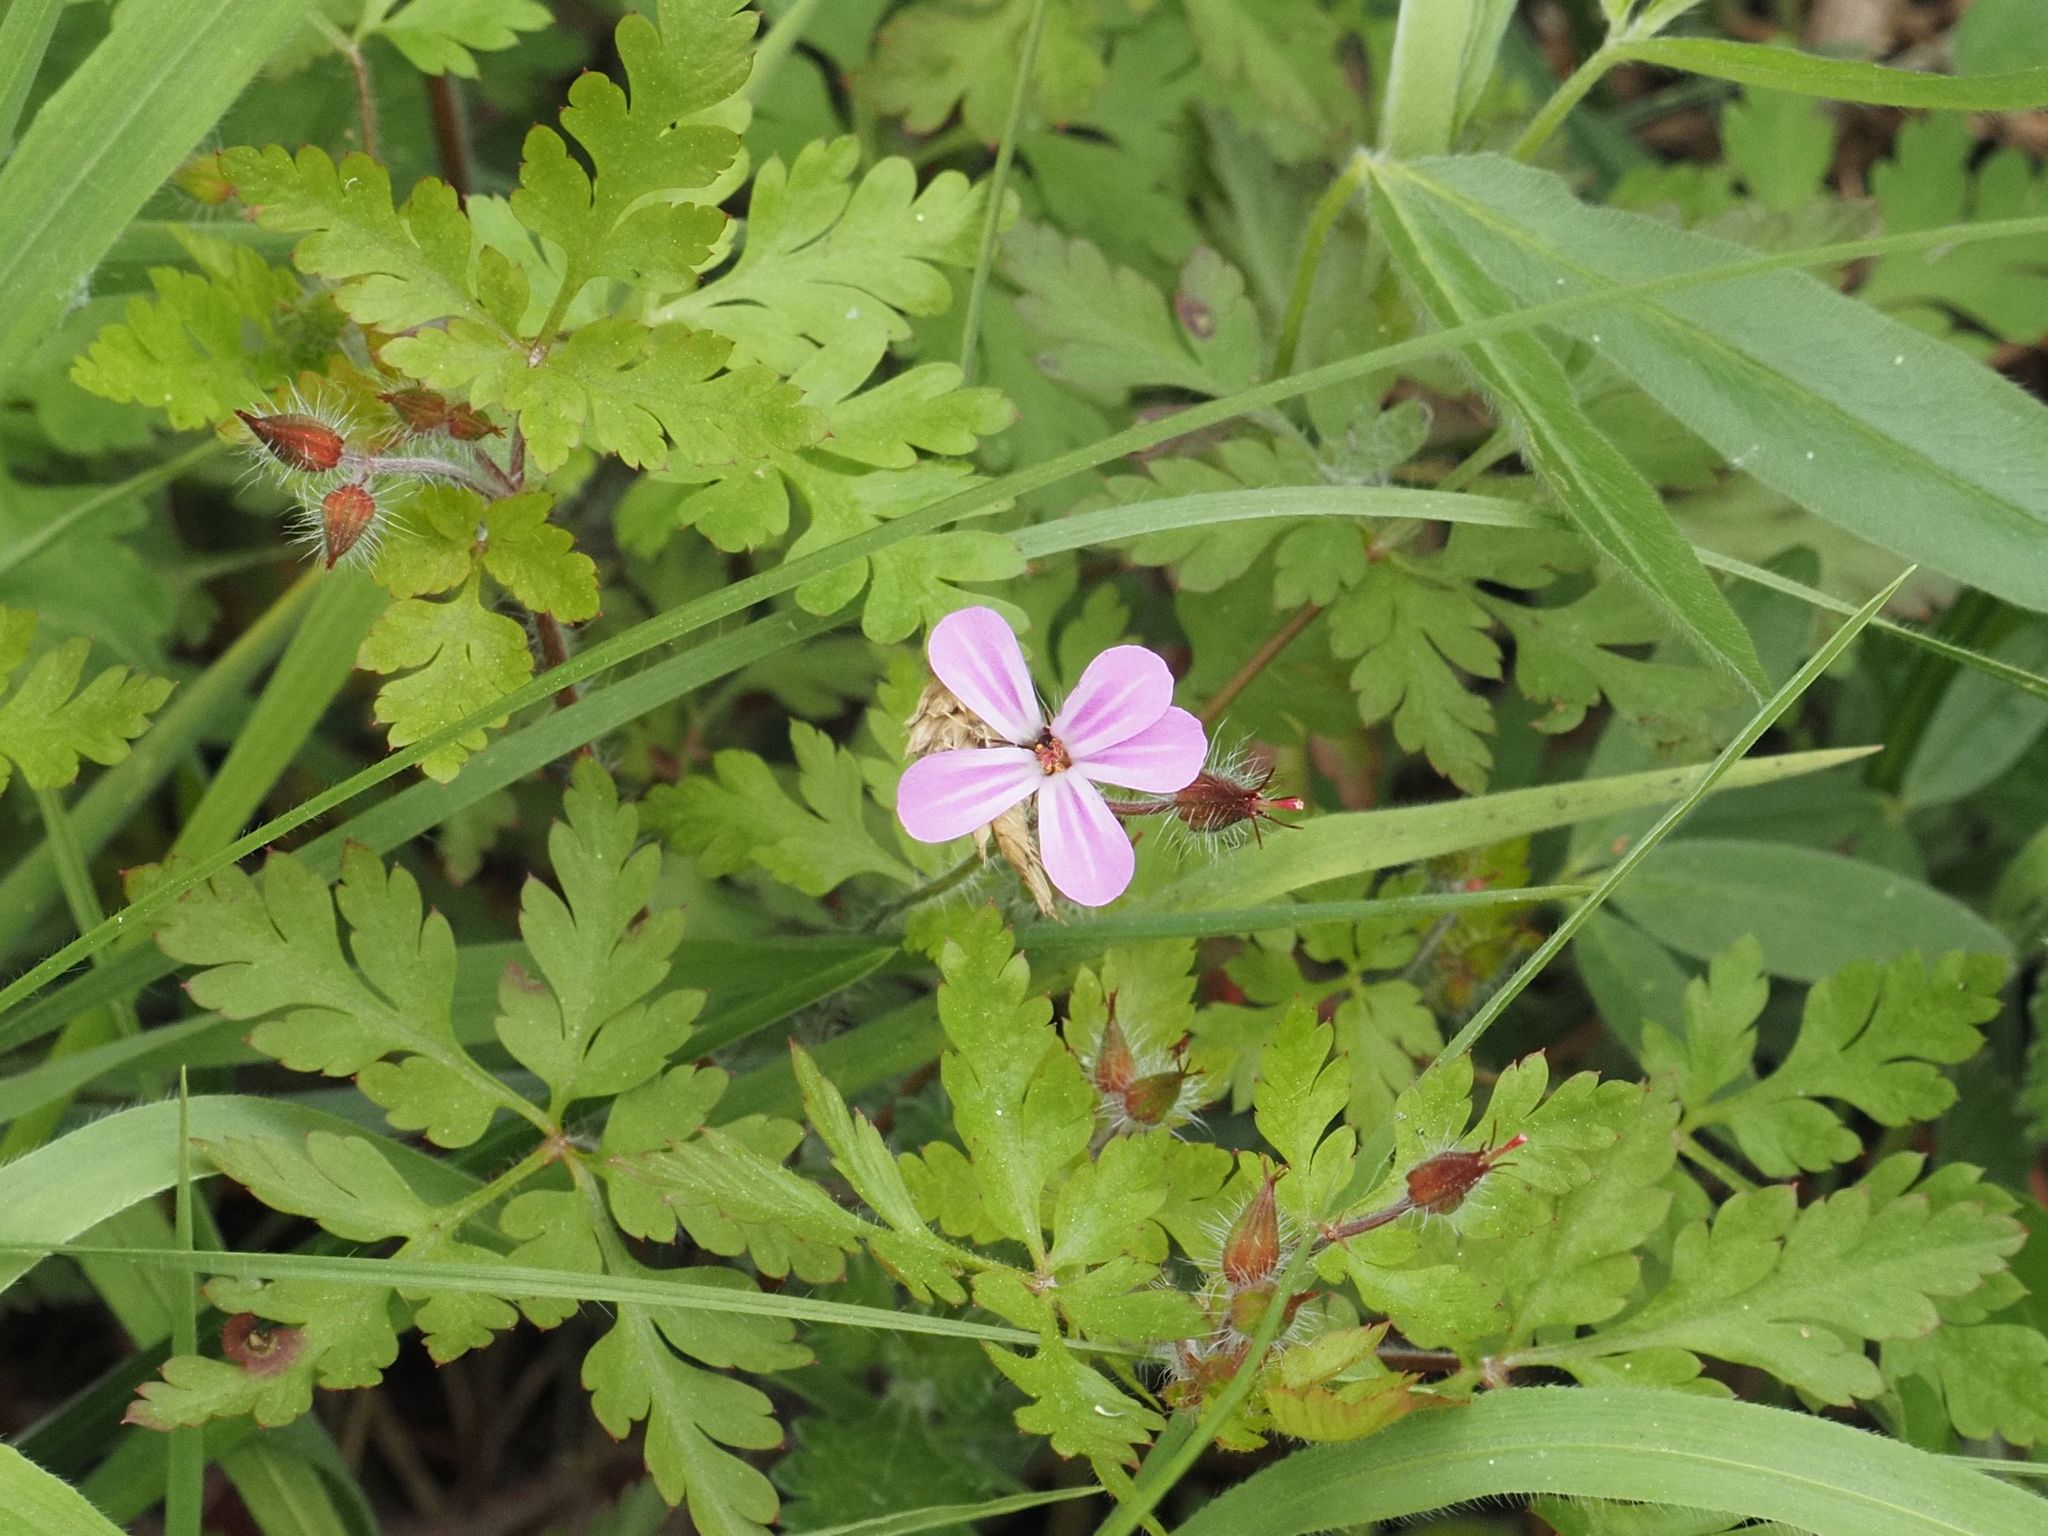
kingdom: Plantae
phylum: Tracheophyta
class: Magnoliopsida
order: Geraniales
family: Geraniaceae
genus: Geranium
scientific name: Geranium robertianum
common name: Herb-robert
